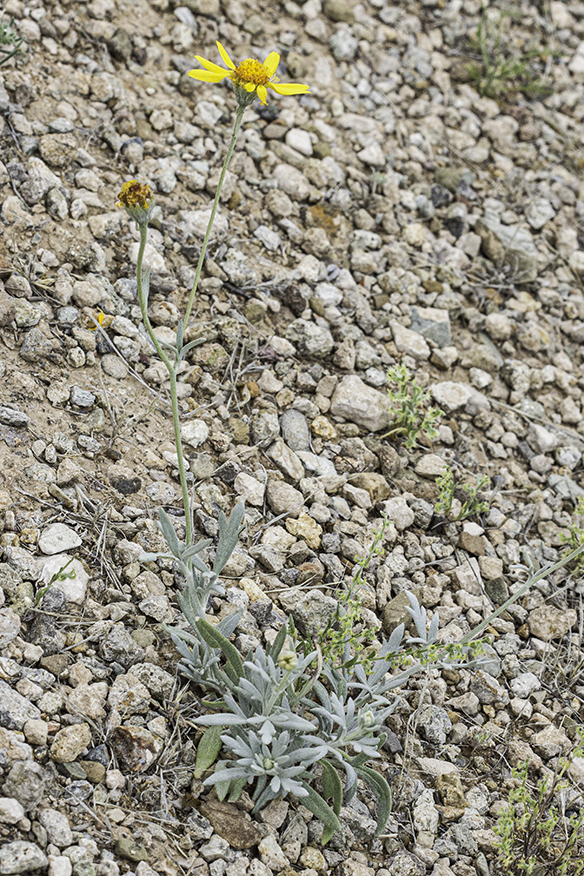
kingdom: Plantae
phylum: Tracheophyta
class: Magnoliopsida
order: Asterales
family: Asteraceae
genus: Picradeniopsis
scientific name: Picradeniopsis absinthifolia
